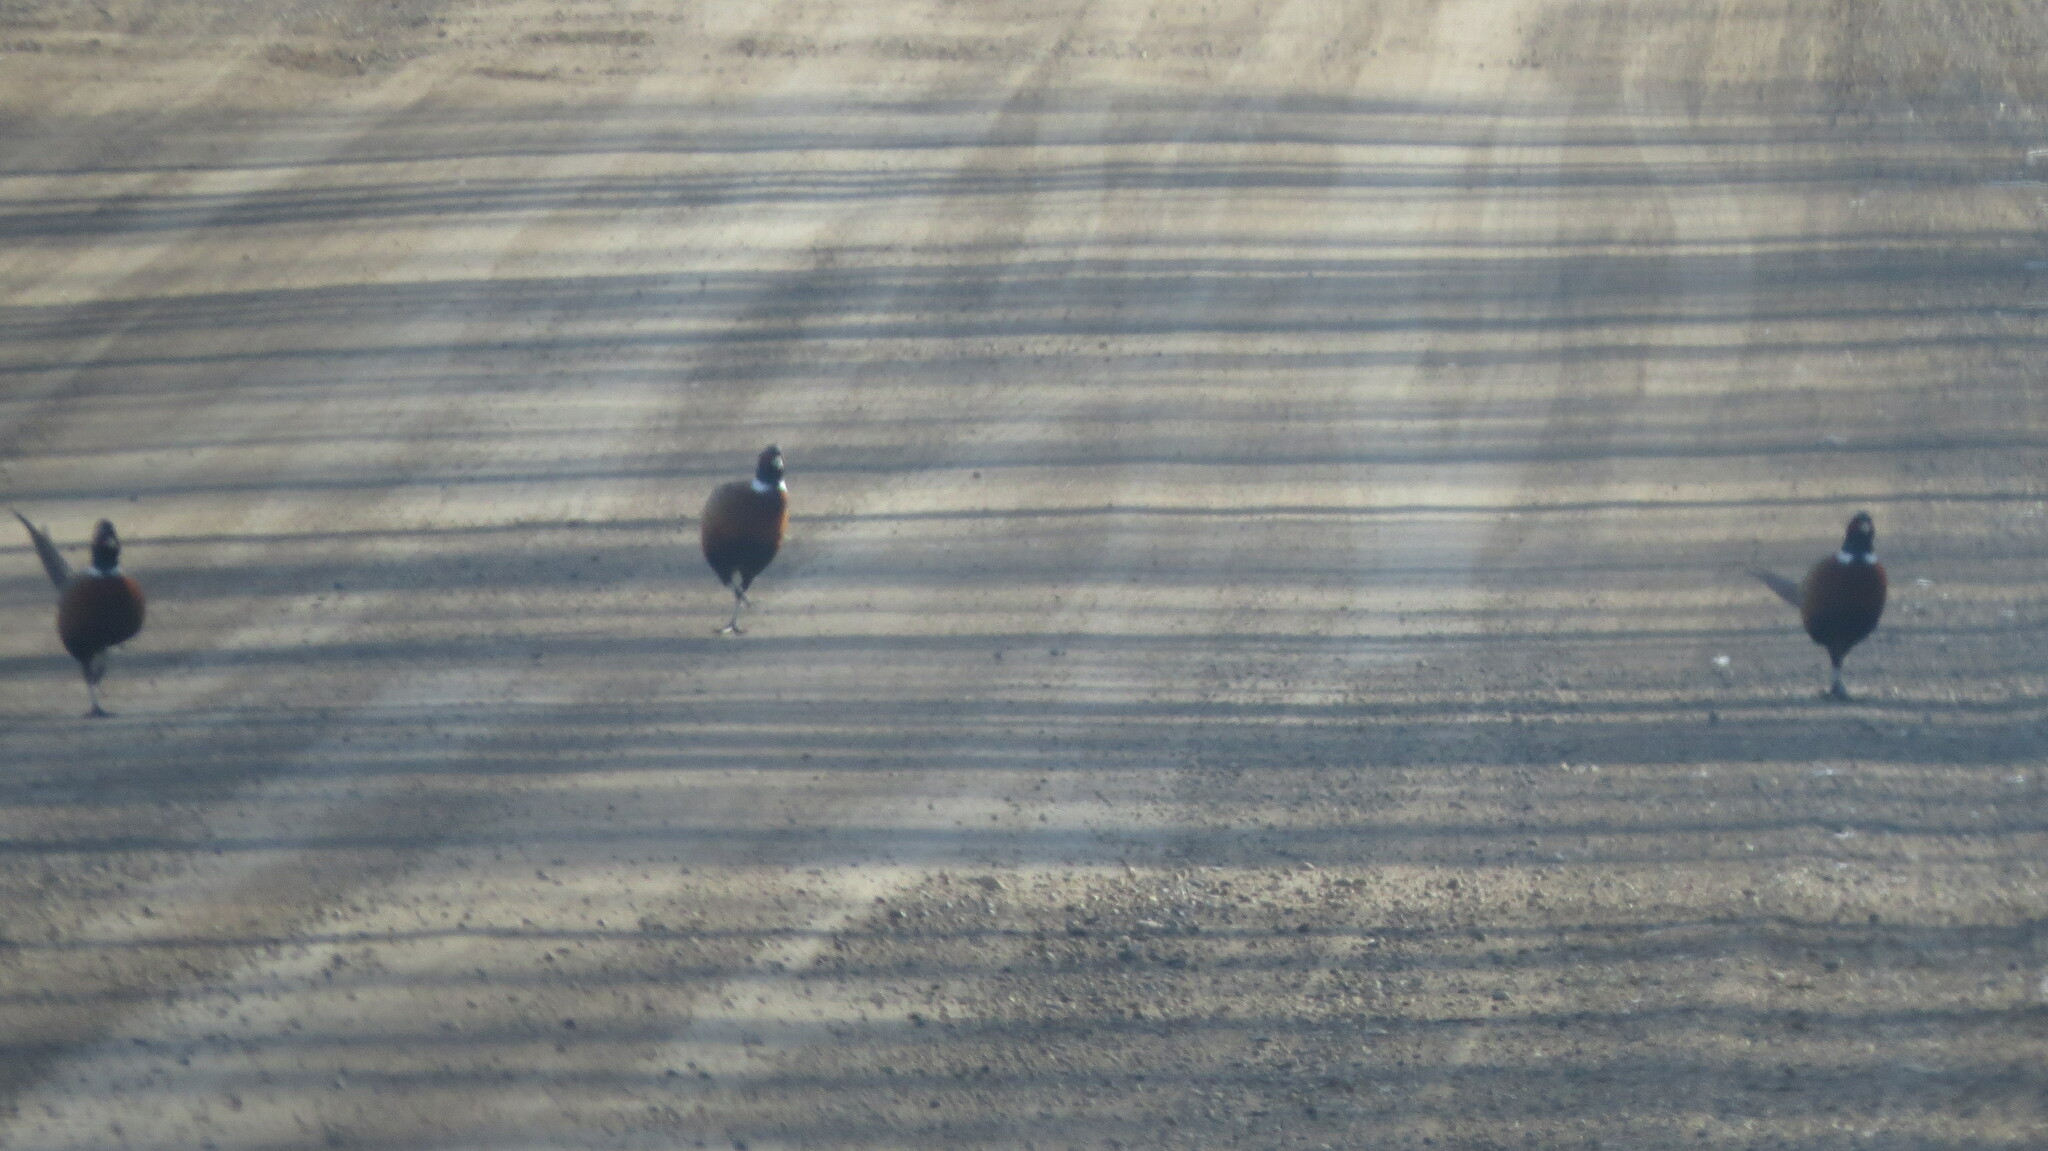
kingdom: Animalia
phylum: Chordata
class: Aves
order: Galliformes
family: Phasianidae
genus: Phasianus
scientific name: Phasianus colchicus
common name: Common pheasant
